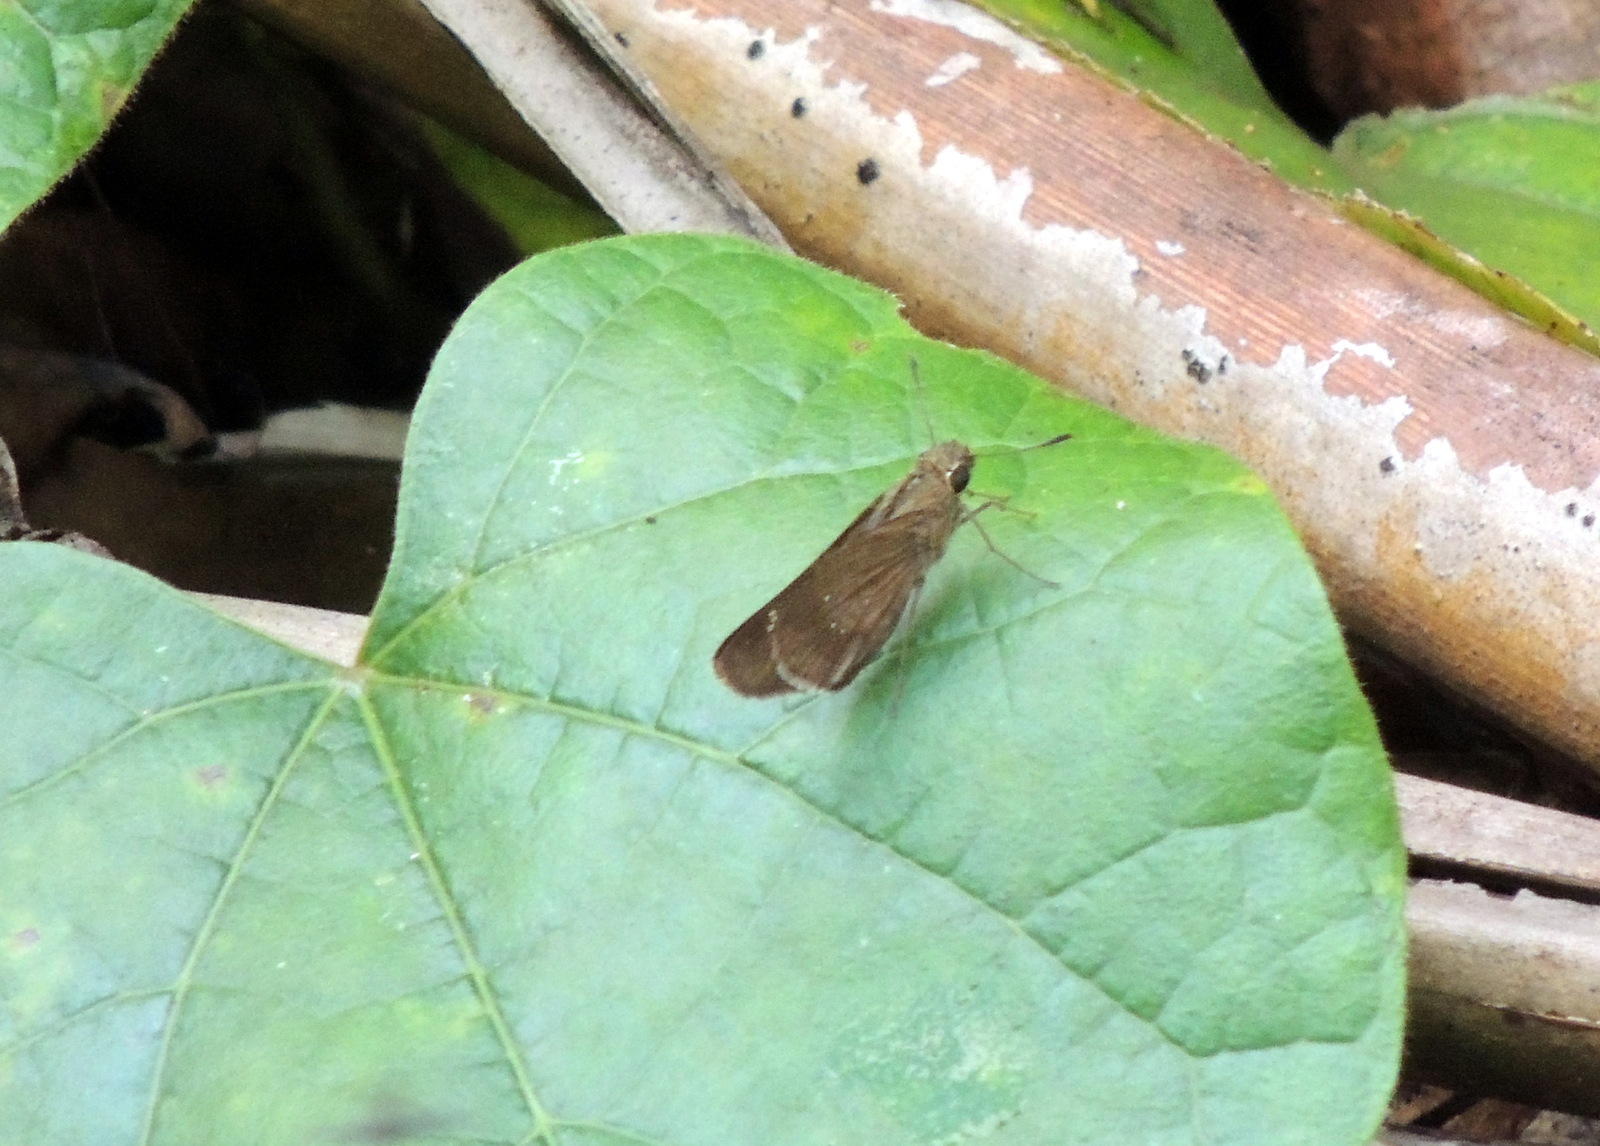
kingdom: Animalia
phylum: Arthropoda
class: Insecta
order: Lepidoptera
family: Hesperiidae
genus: Baoris
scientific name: Baoris fatuellus
